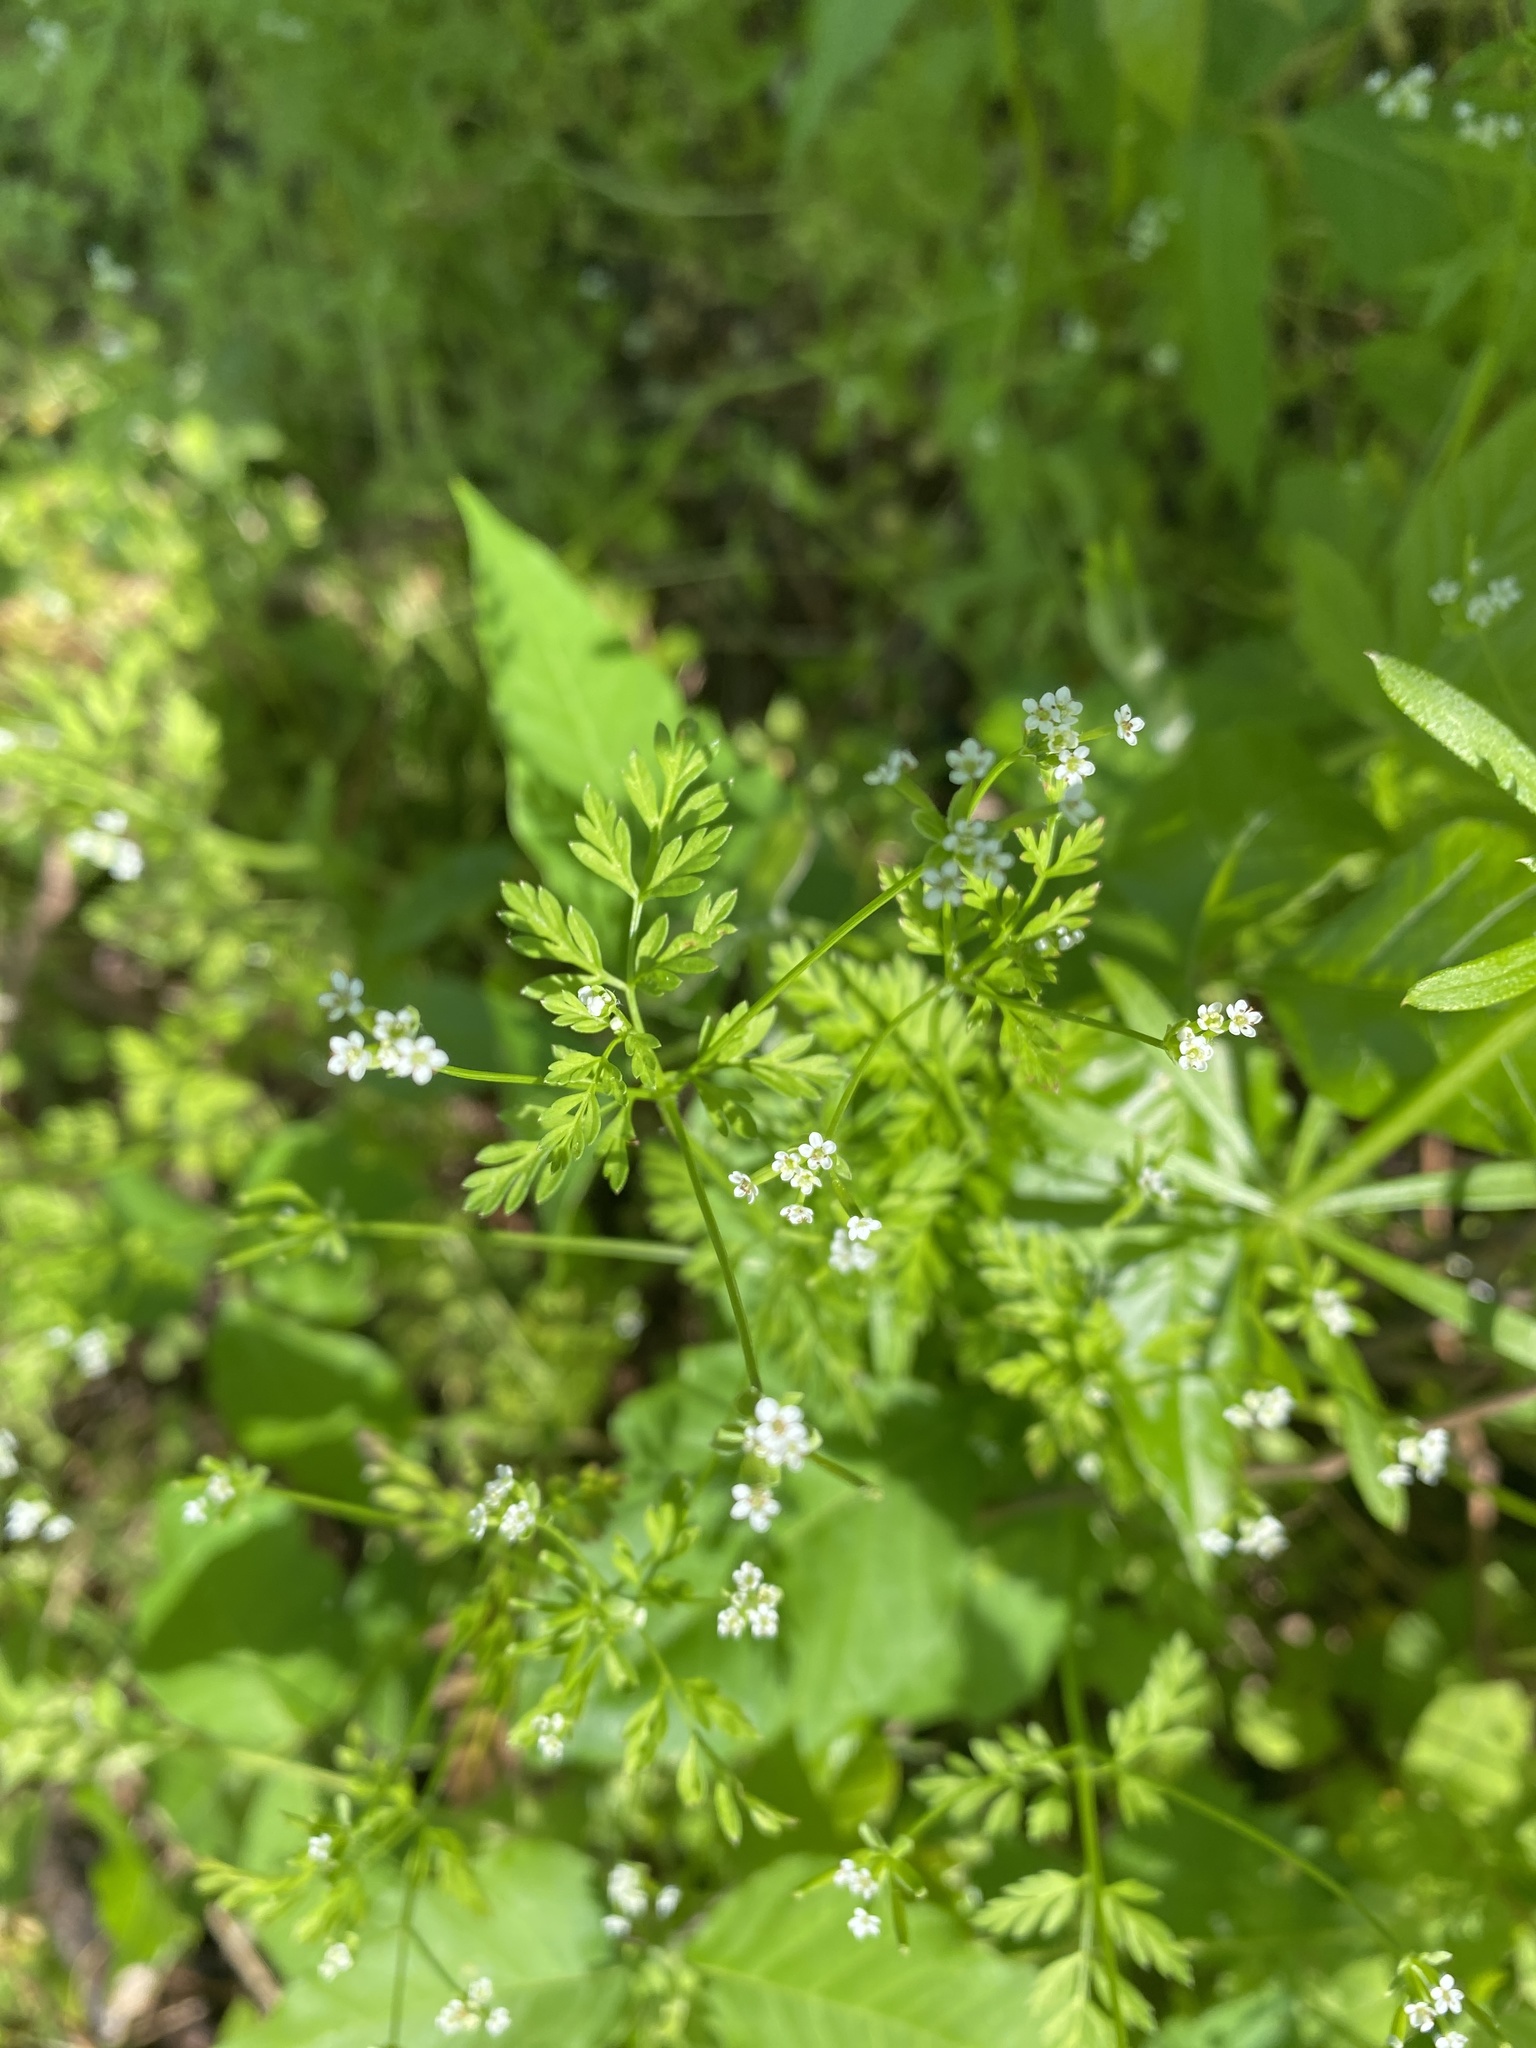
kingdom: Plantae
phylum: Tracheophyta
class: Magnoliopsida
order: Apiales
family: Apiaceae
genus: Chaerophyllum
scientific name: Chaerophyllum tainturieri
